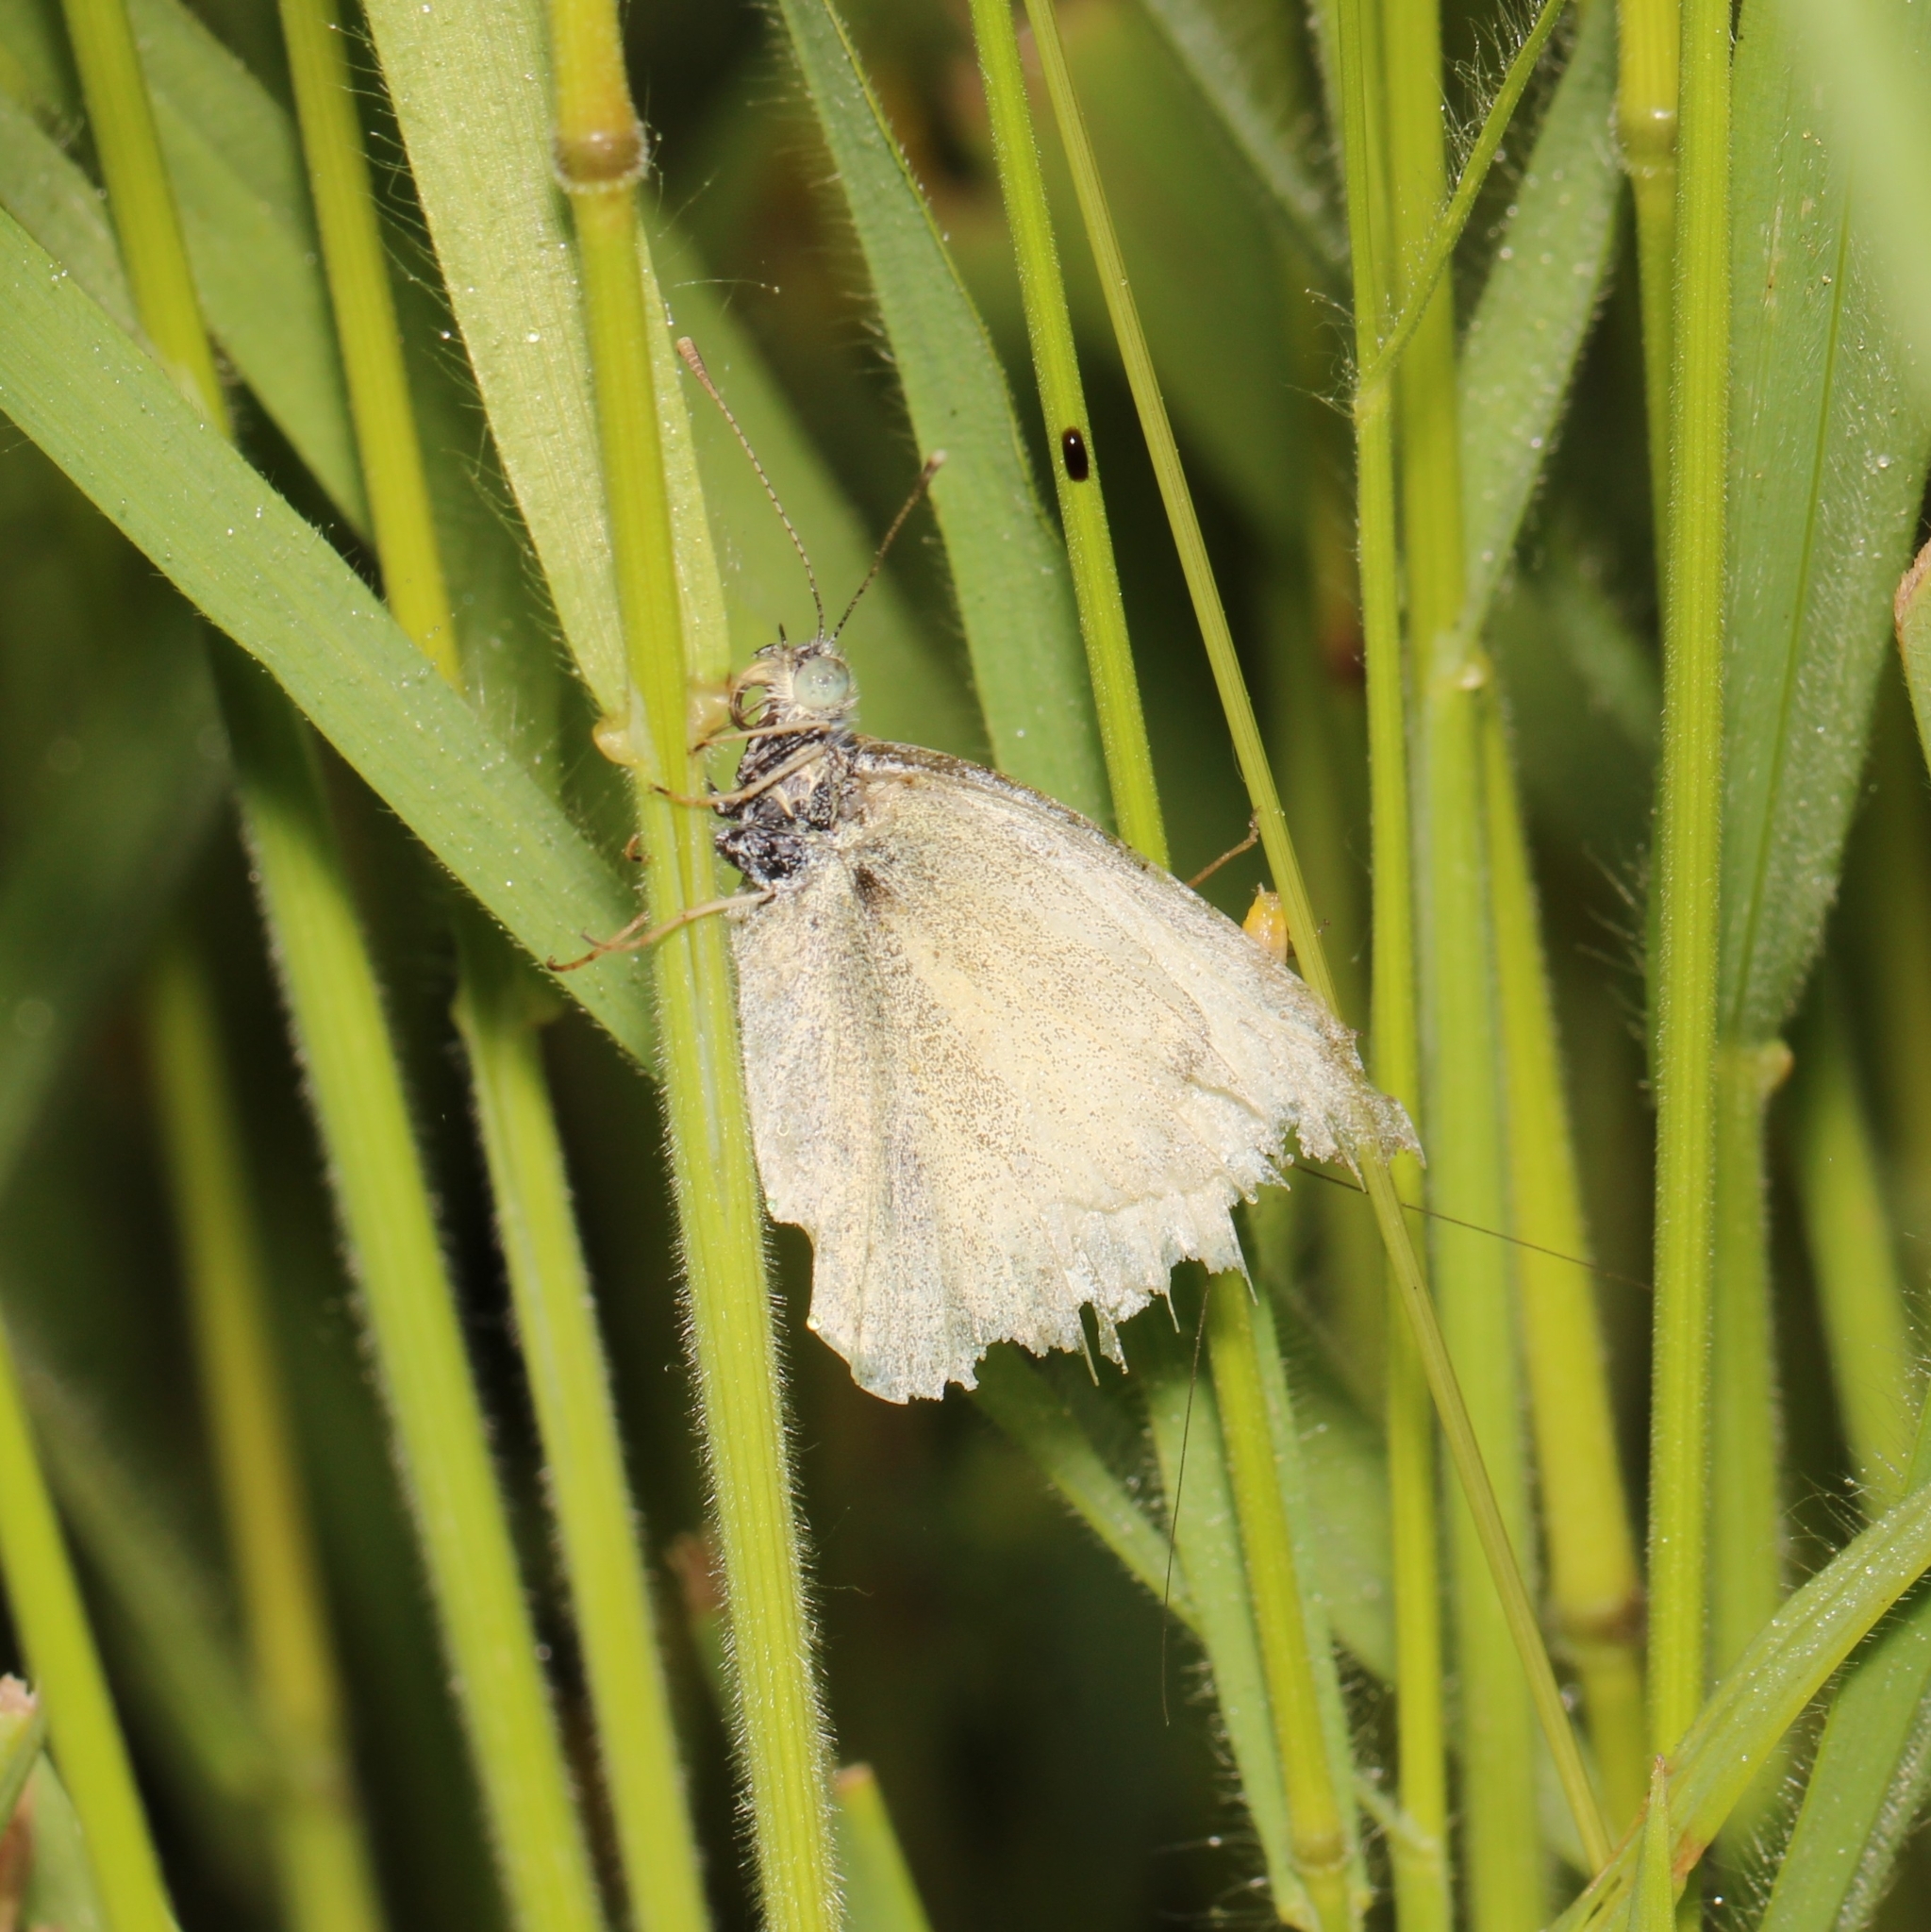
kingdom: Animalia
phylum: Arthropoda
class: Insecta
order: Lepidoptera
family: Pieridae
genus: Pieris
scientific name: Pieris rapae
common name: Small white
